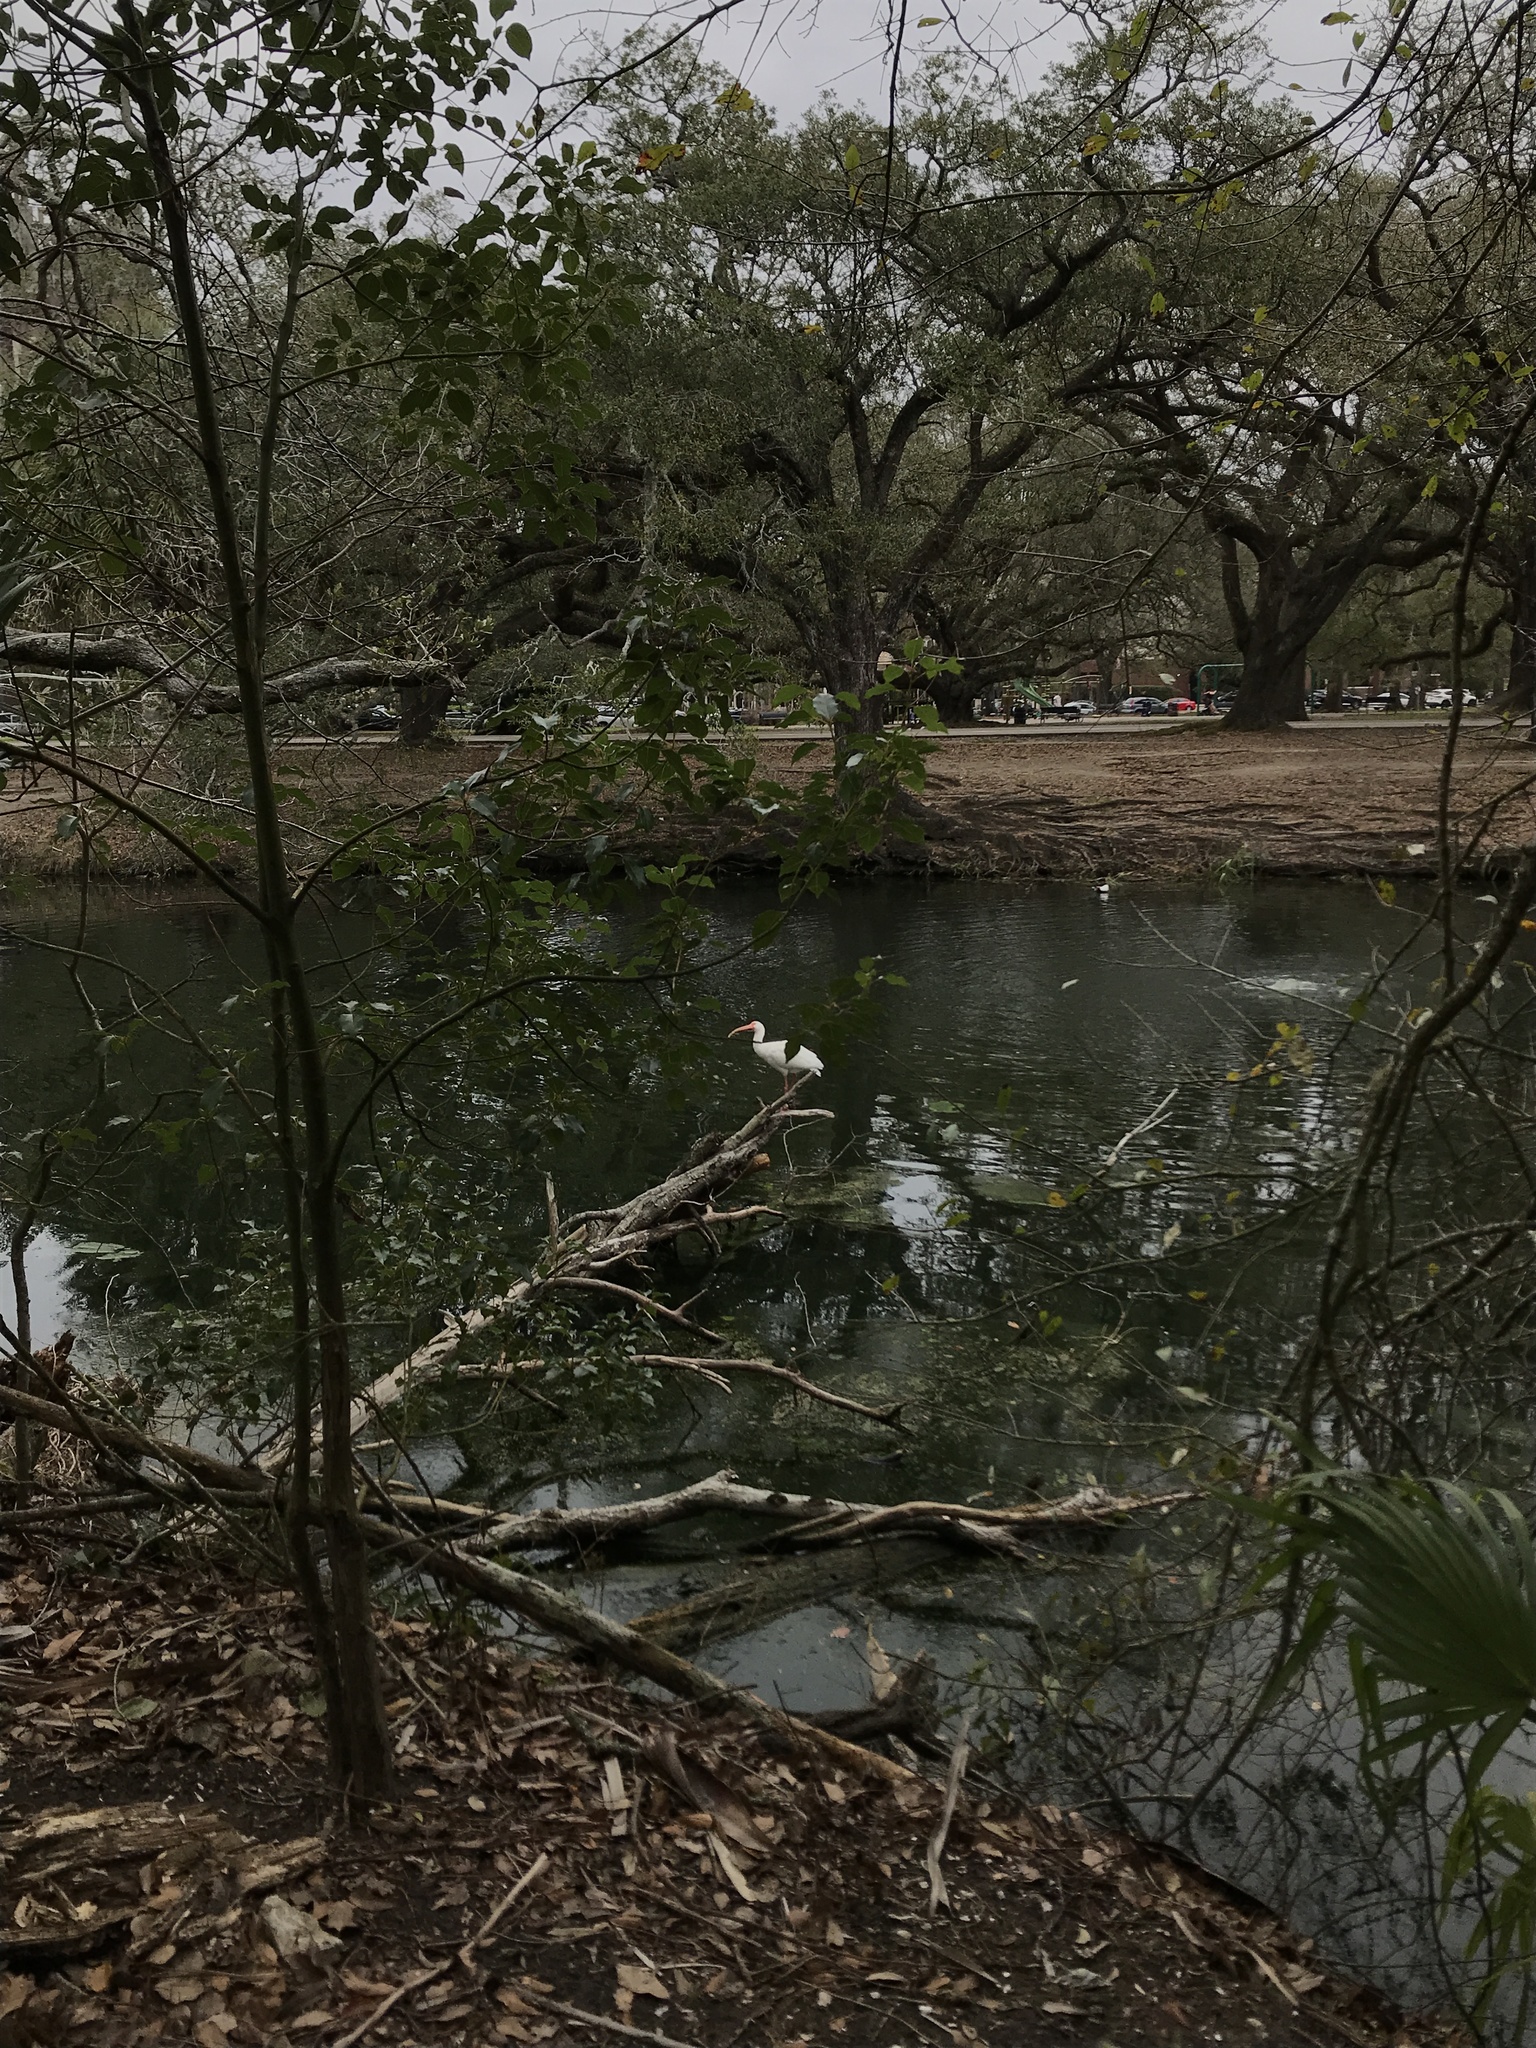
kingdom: Animalia
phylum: Chordata
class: Aves
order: Pelecaniformes
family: Threskiornithidae
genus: Eudocimus
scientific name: Eudocimus albus
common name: White ibis
